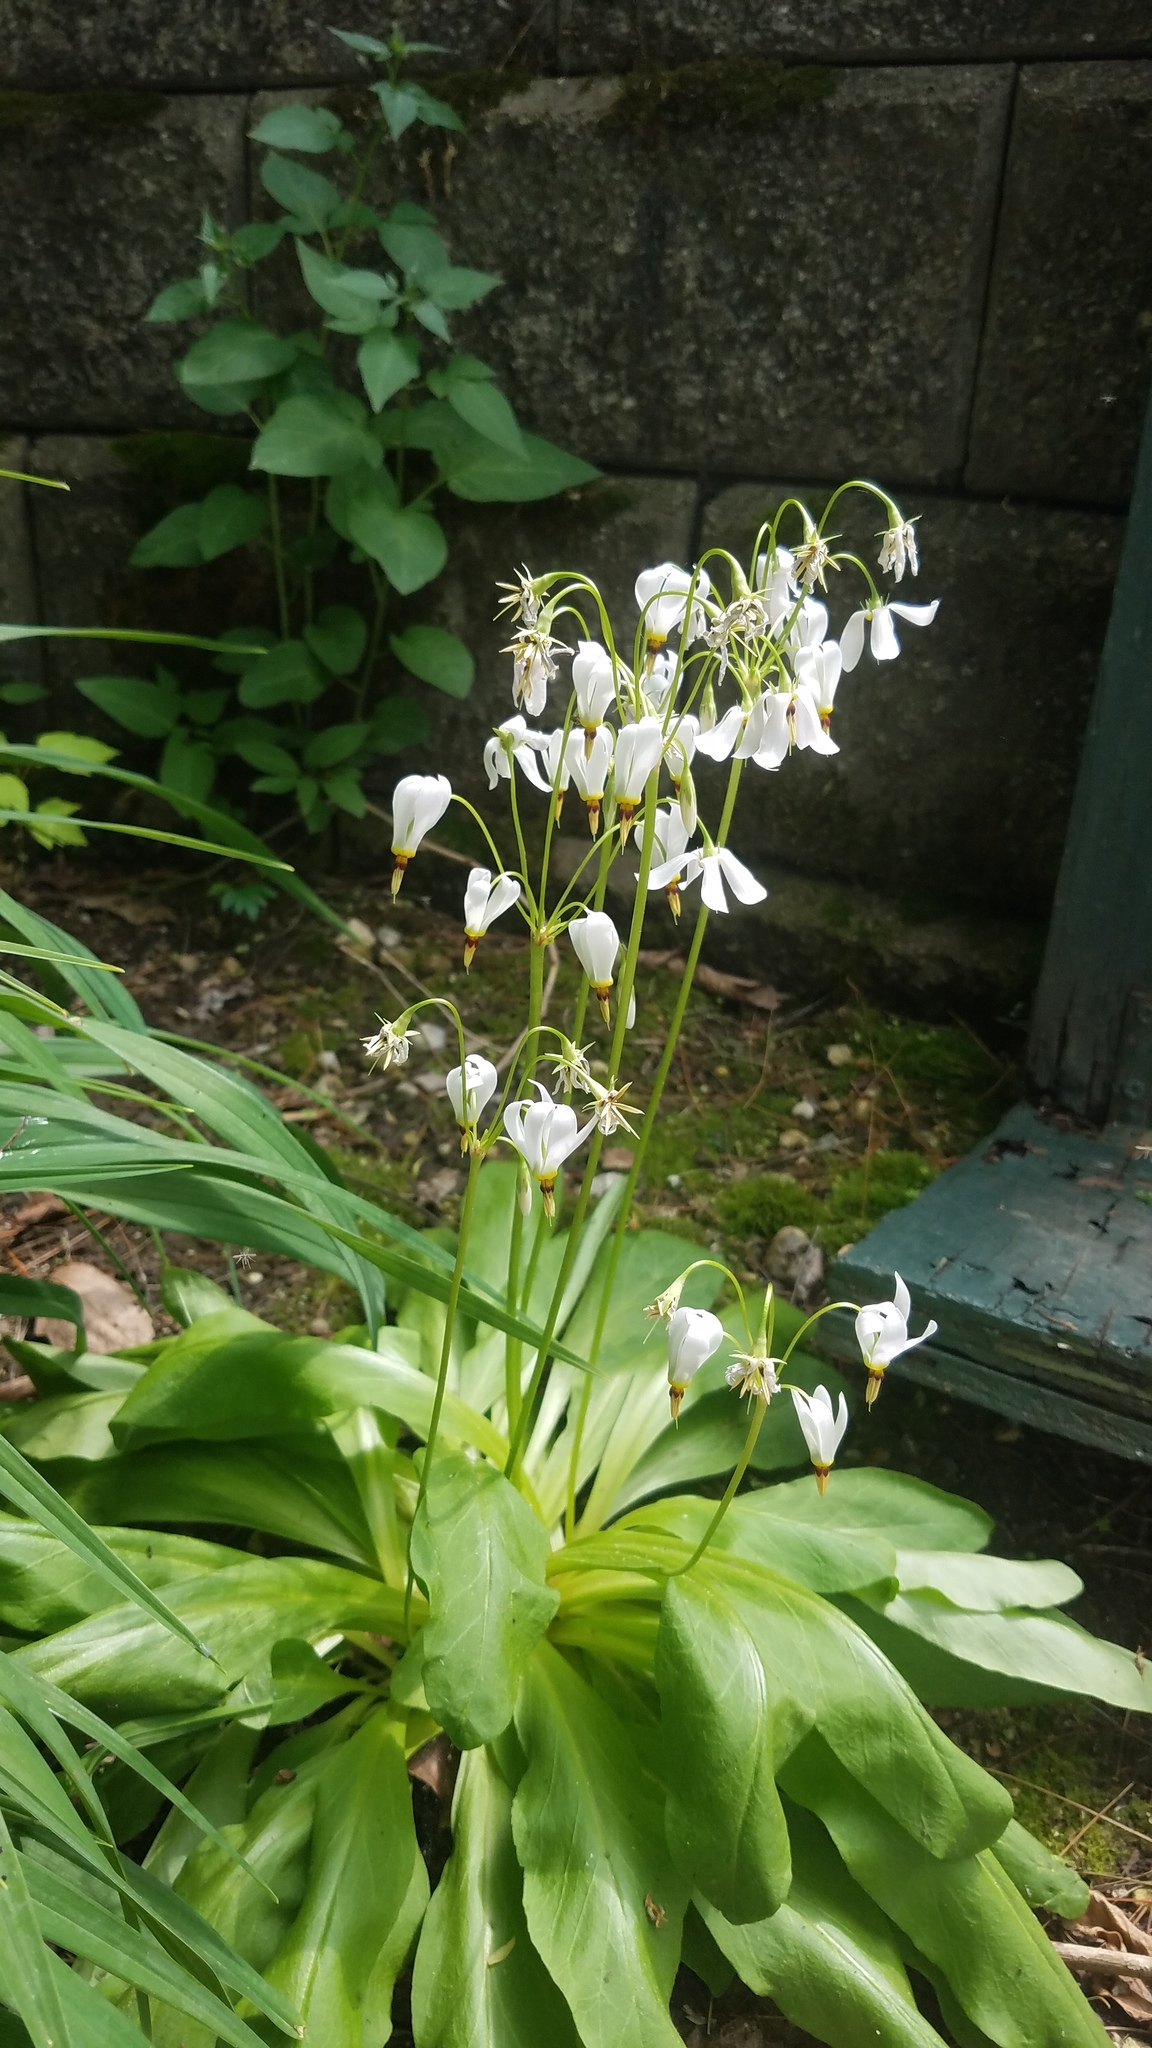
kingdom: Plantae
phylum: Tracheophyta
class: Magnoliopsida
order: Ericales
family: Primulaceae
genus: Dodecatheon
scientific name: Dodecatheon meadia
